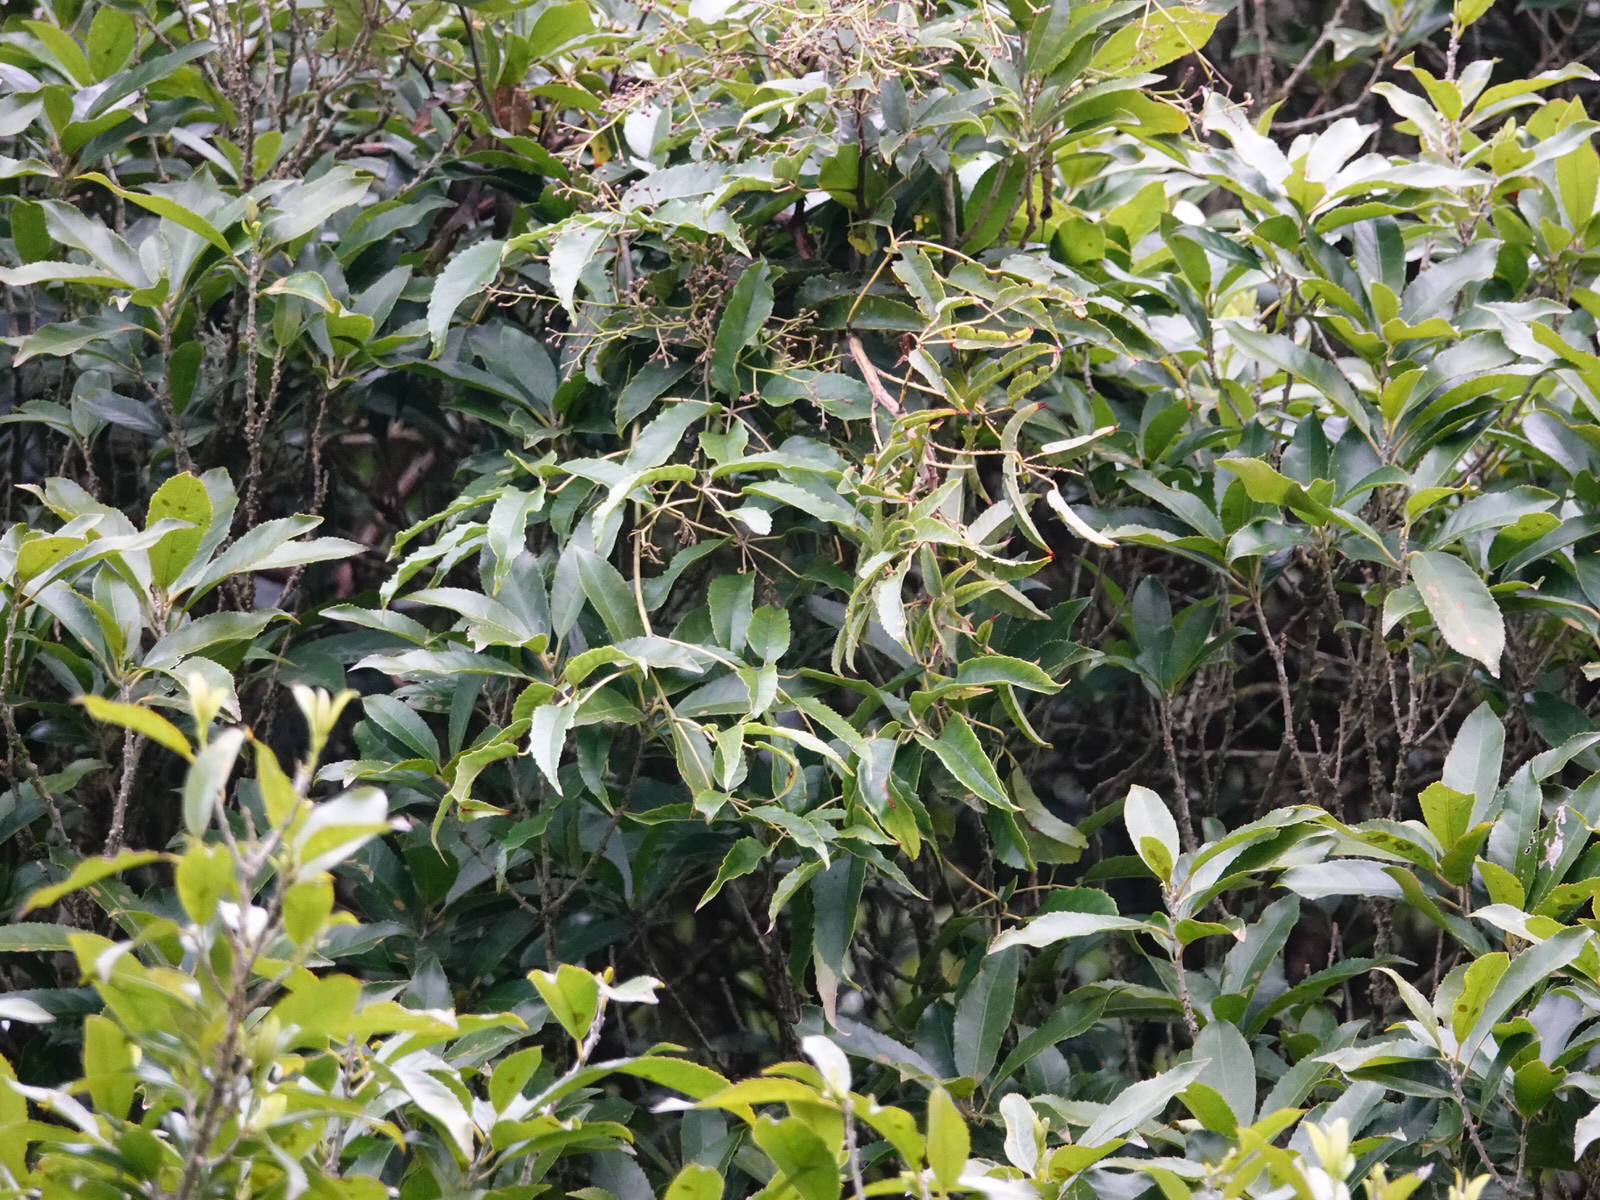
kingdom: Plantae
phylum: Tracheophyta
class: Magnoliopsida
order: Rosales
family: Rosaceae
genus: Rubus
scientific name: Rubus cissoides
